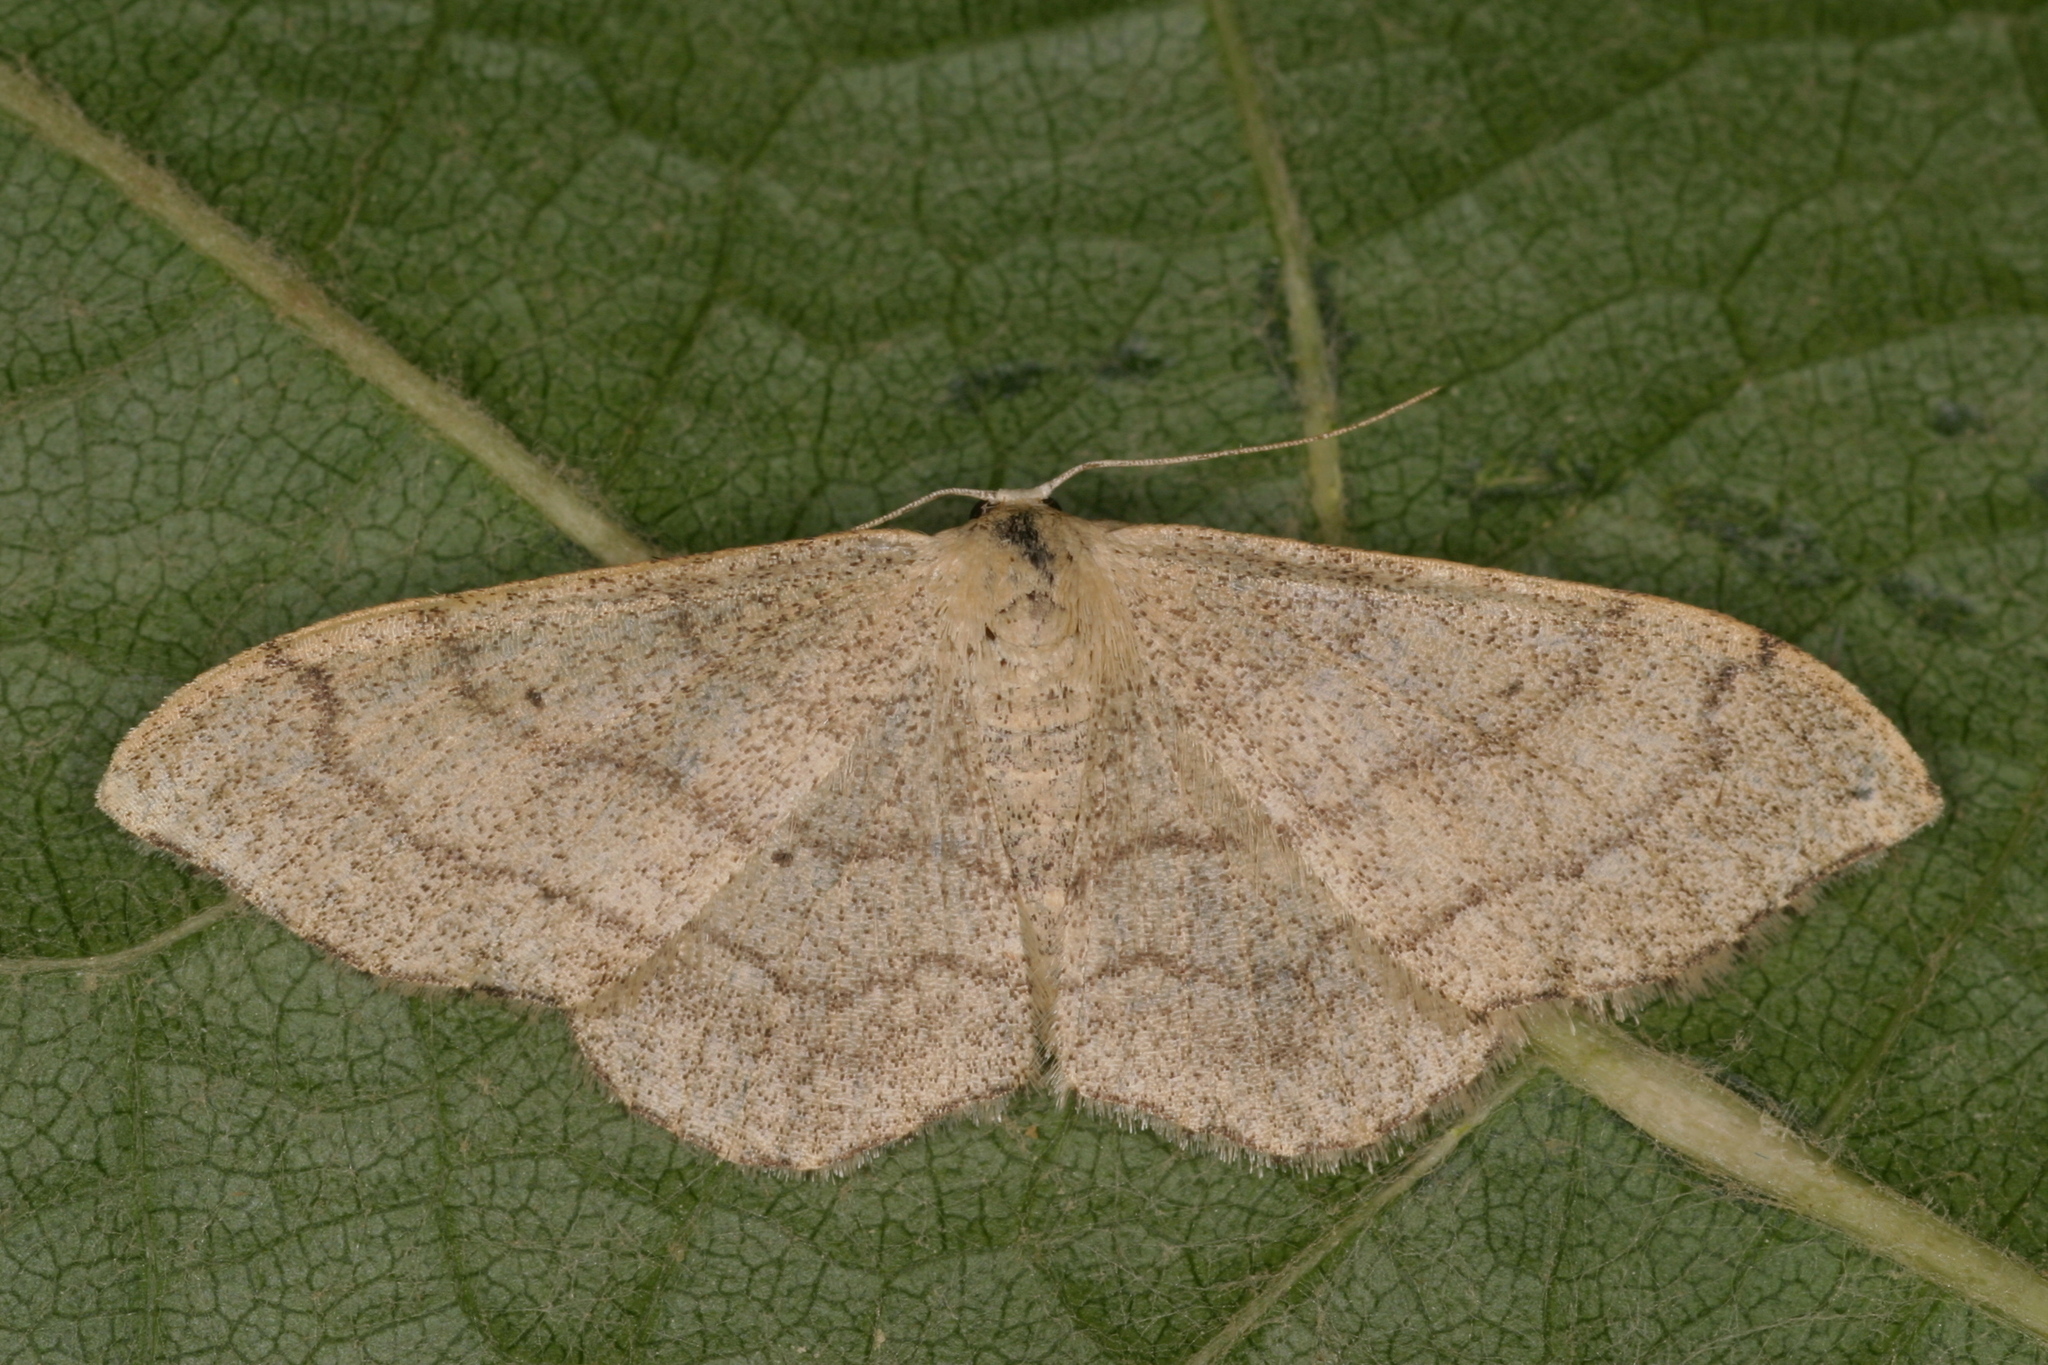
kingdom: Animalia
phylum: Arthropoda
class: Insecta
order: Lepidoptera
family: Geometridae
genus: Idaea
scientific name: Idaea aversata
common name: Riband wave
